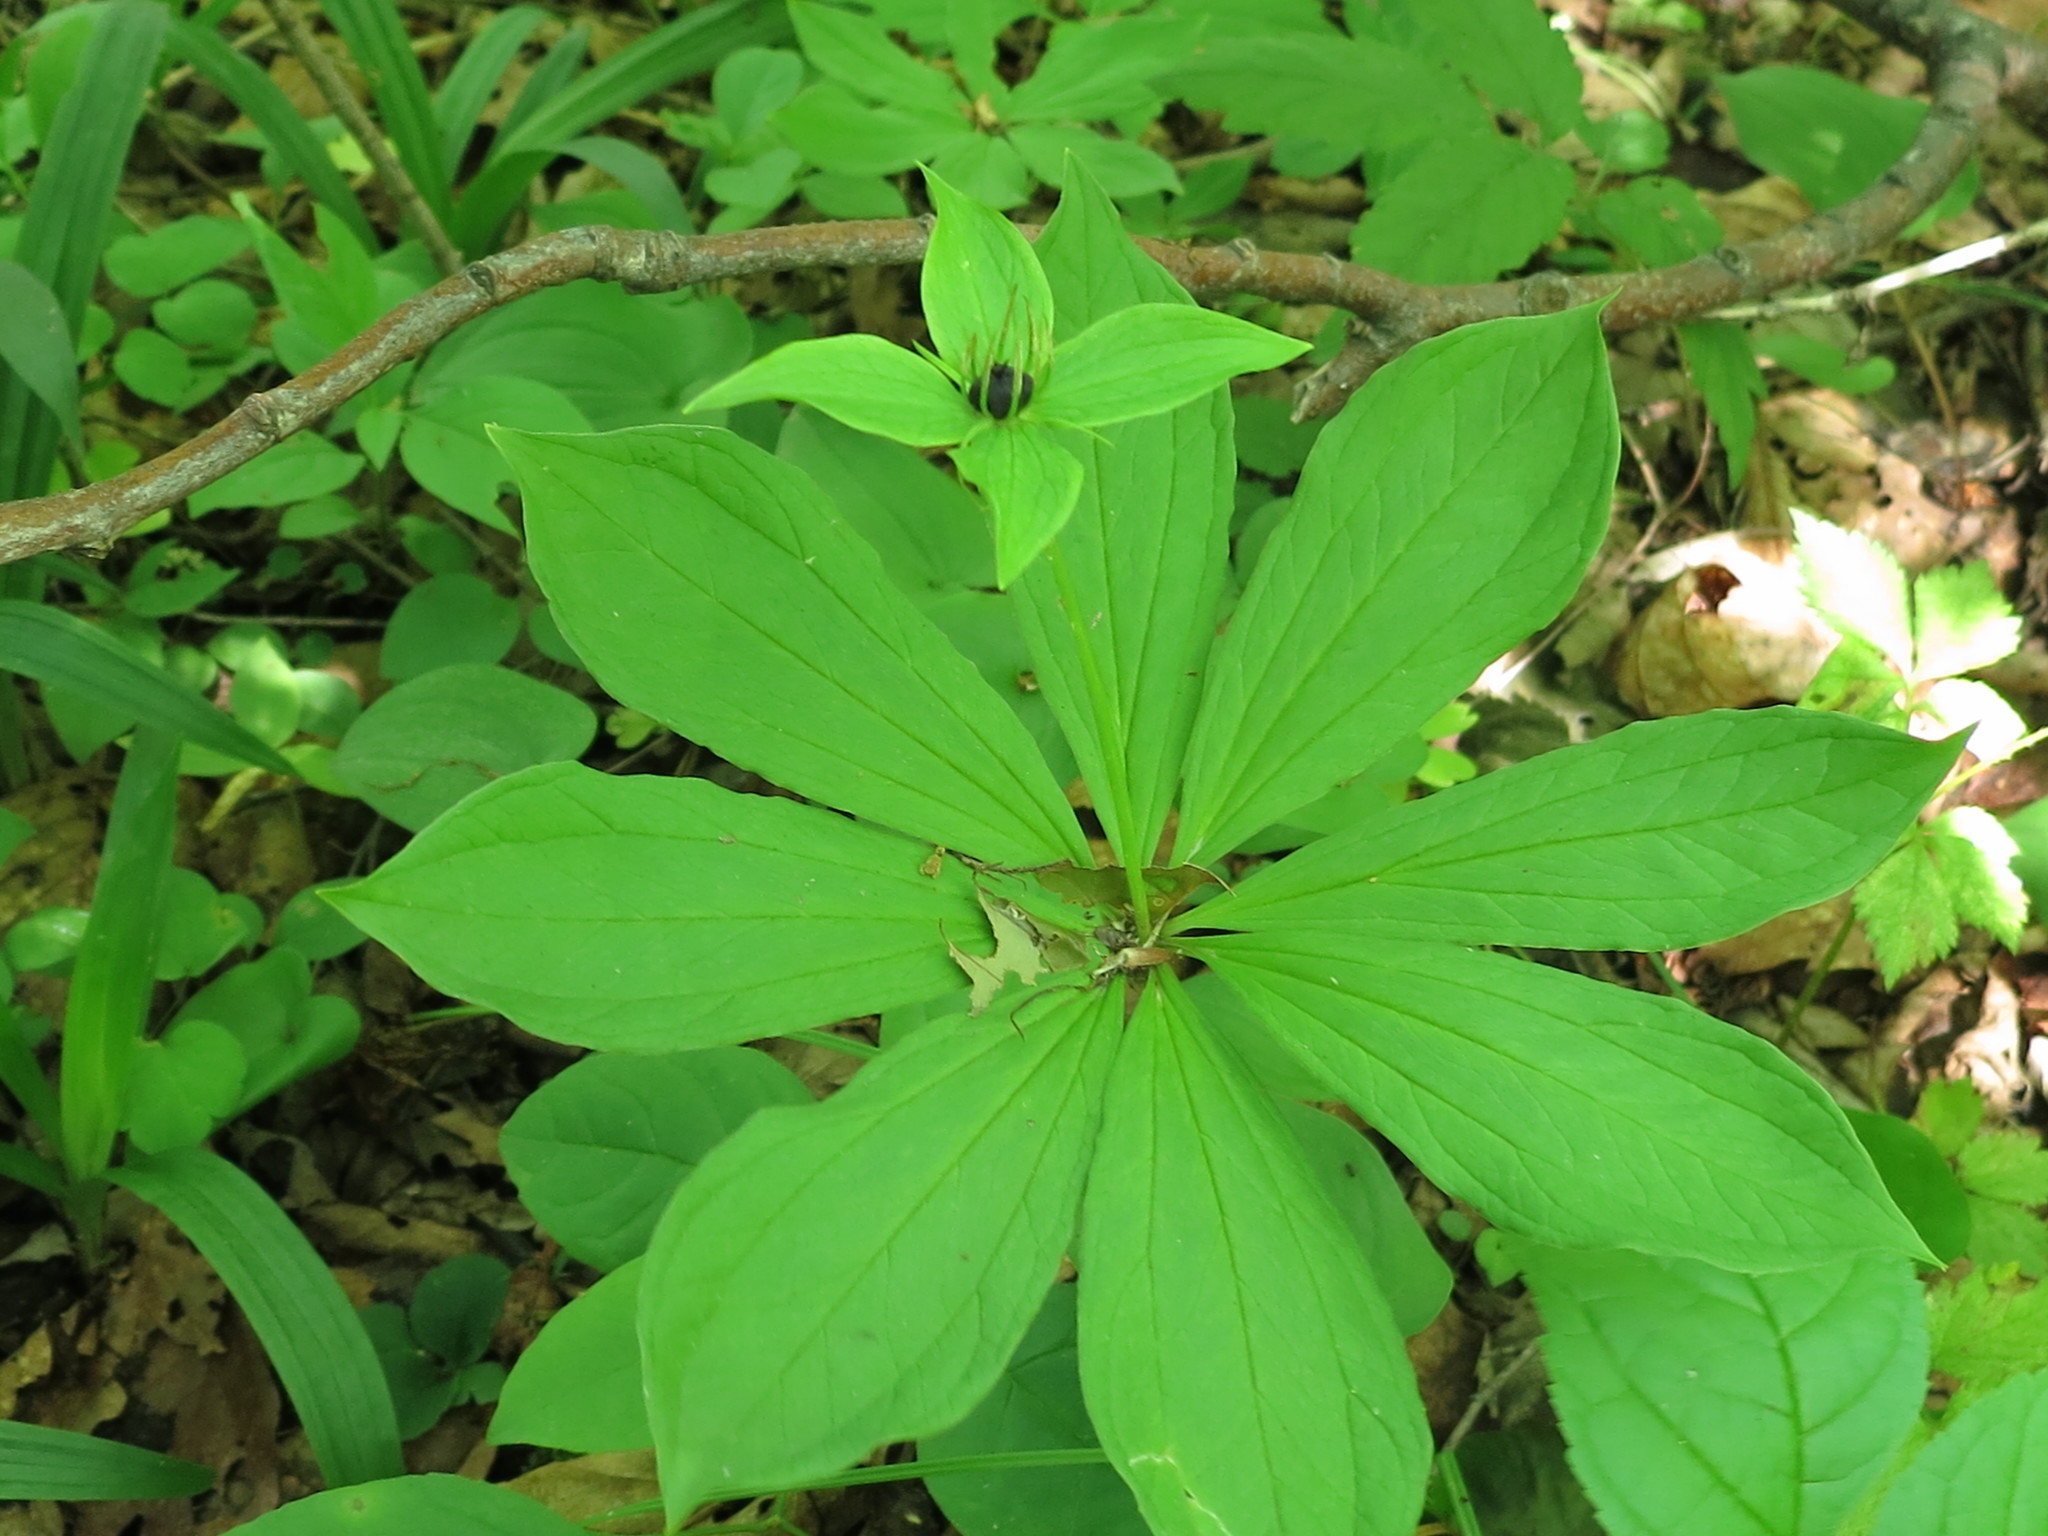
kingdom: Plantae
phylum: Tracheophyta
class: Liliopsida
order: Liliales
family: Melanthiaceae
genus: Paris
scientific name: Paris verticillata
